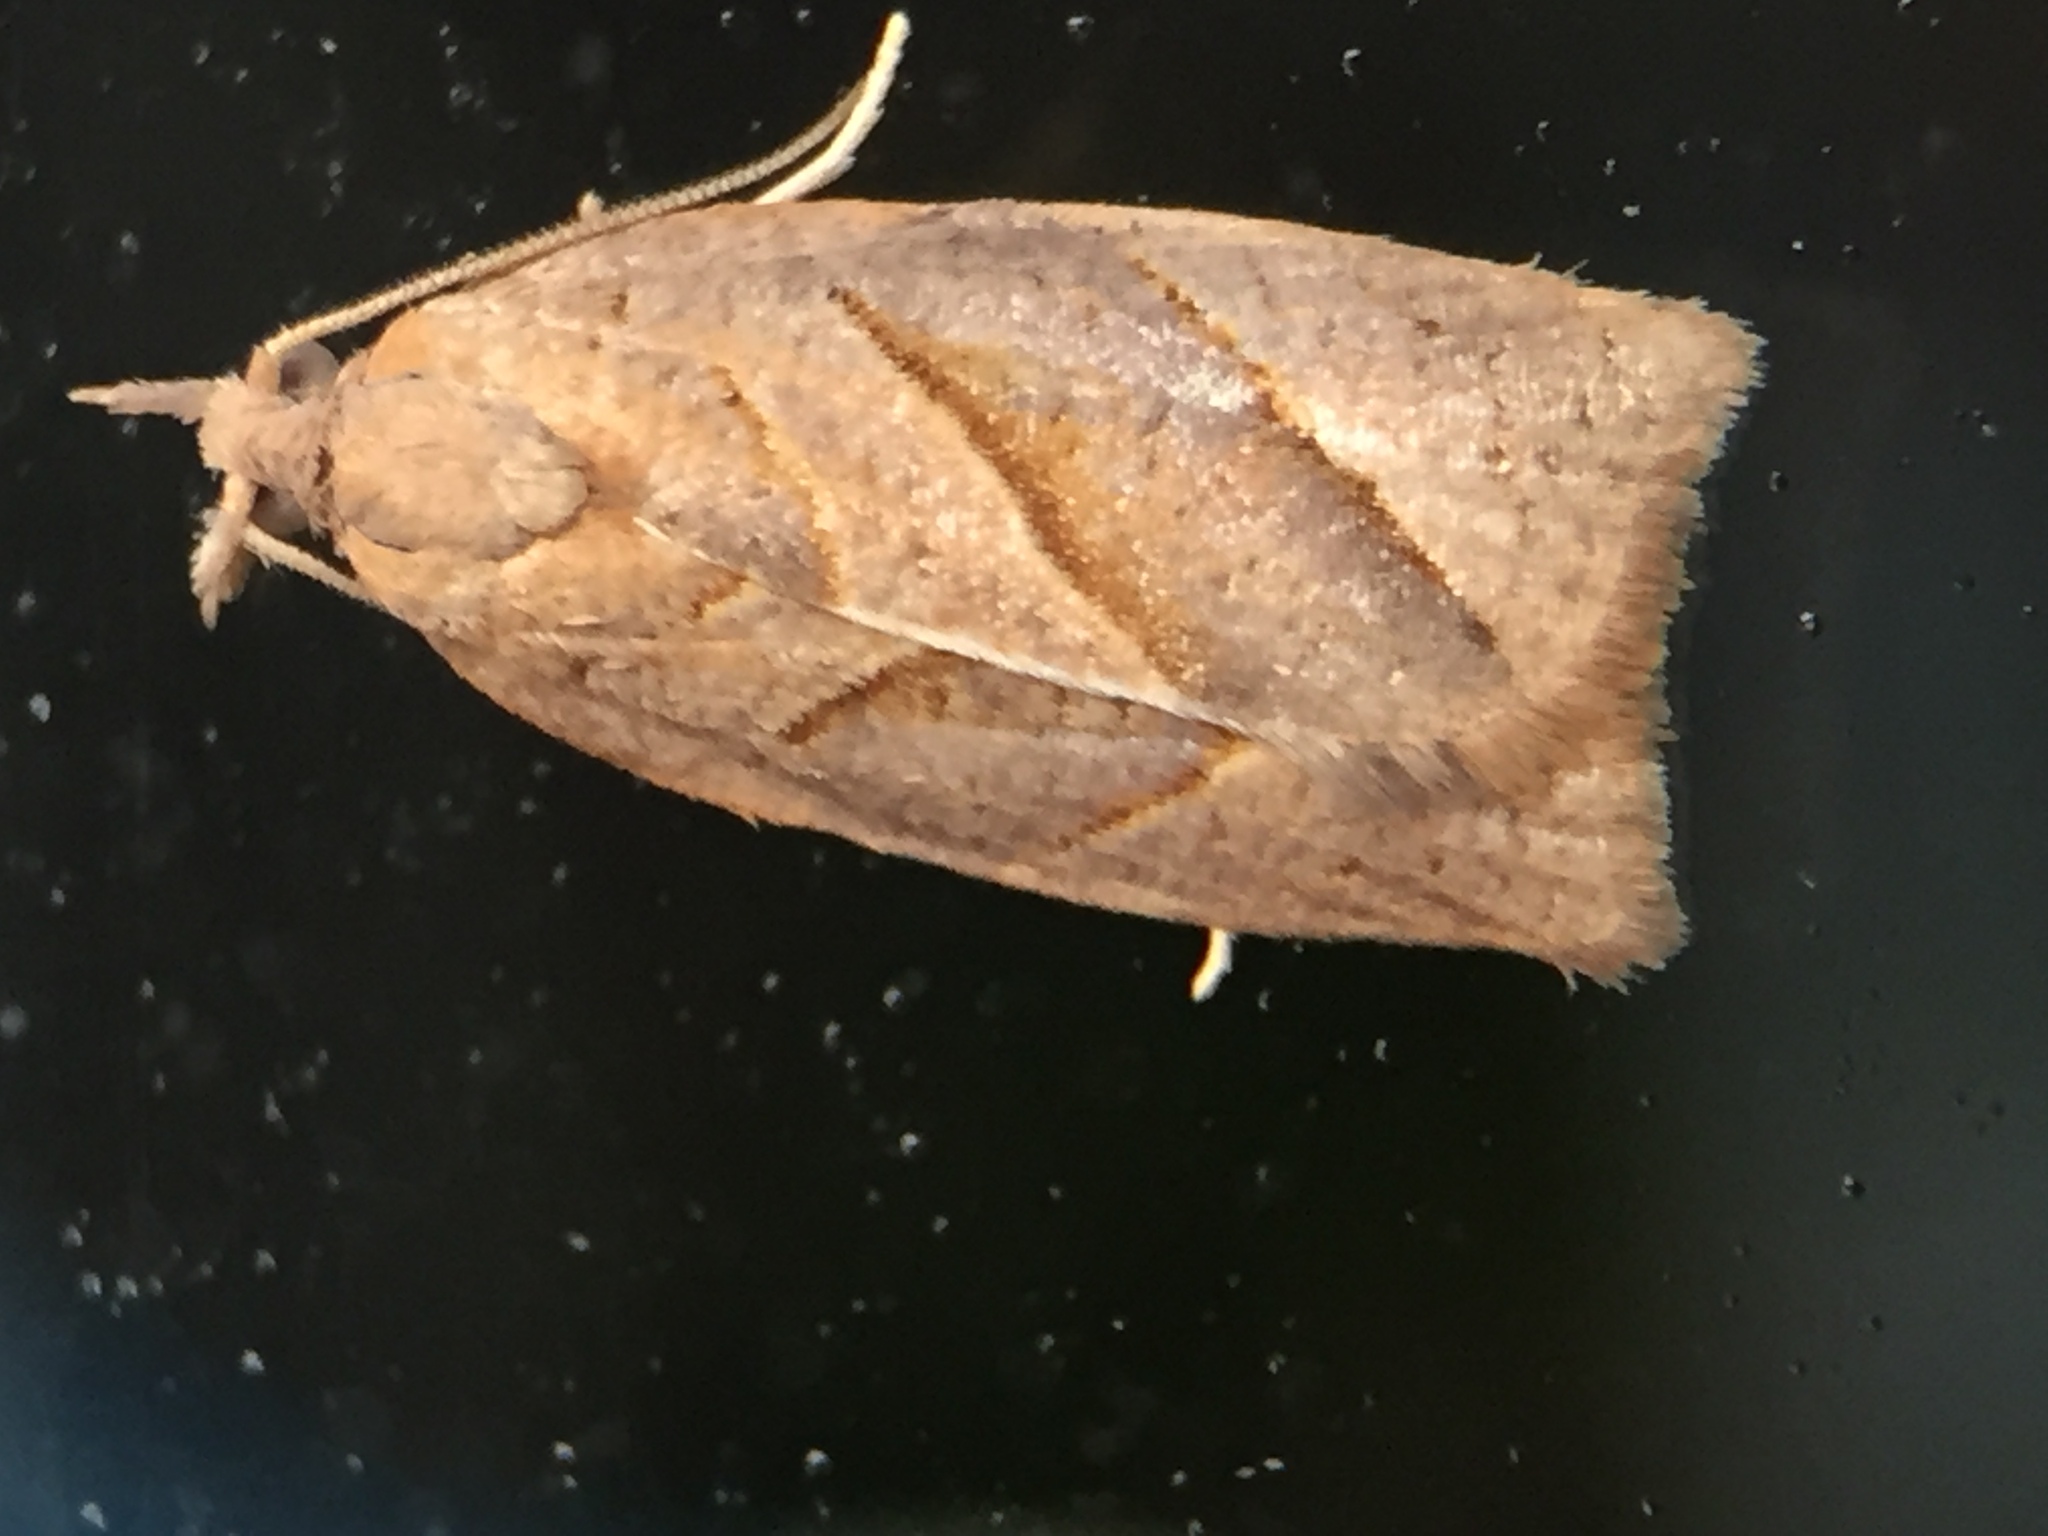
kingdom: Animalia
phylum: Arthropoda
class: Insecta
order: Lepidoptera
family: Tortricidae
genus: Apoctena
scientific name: Apoctena orthocopa
